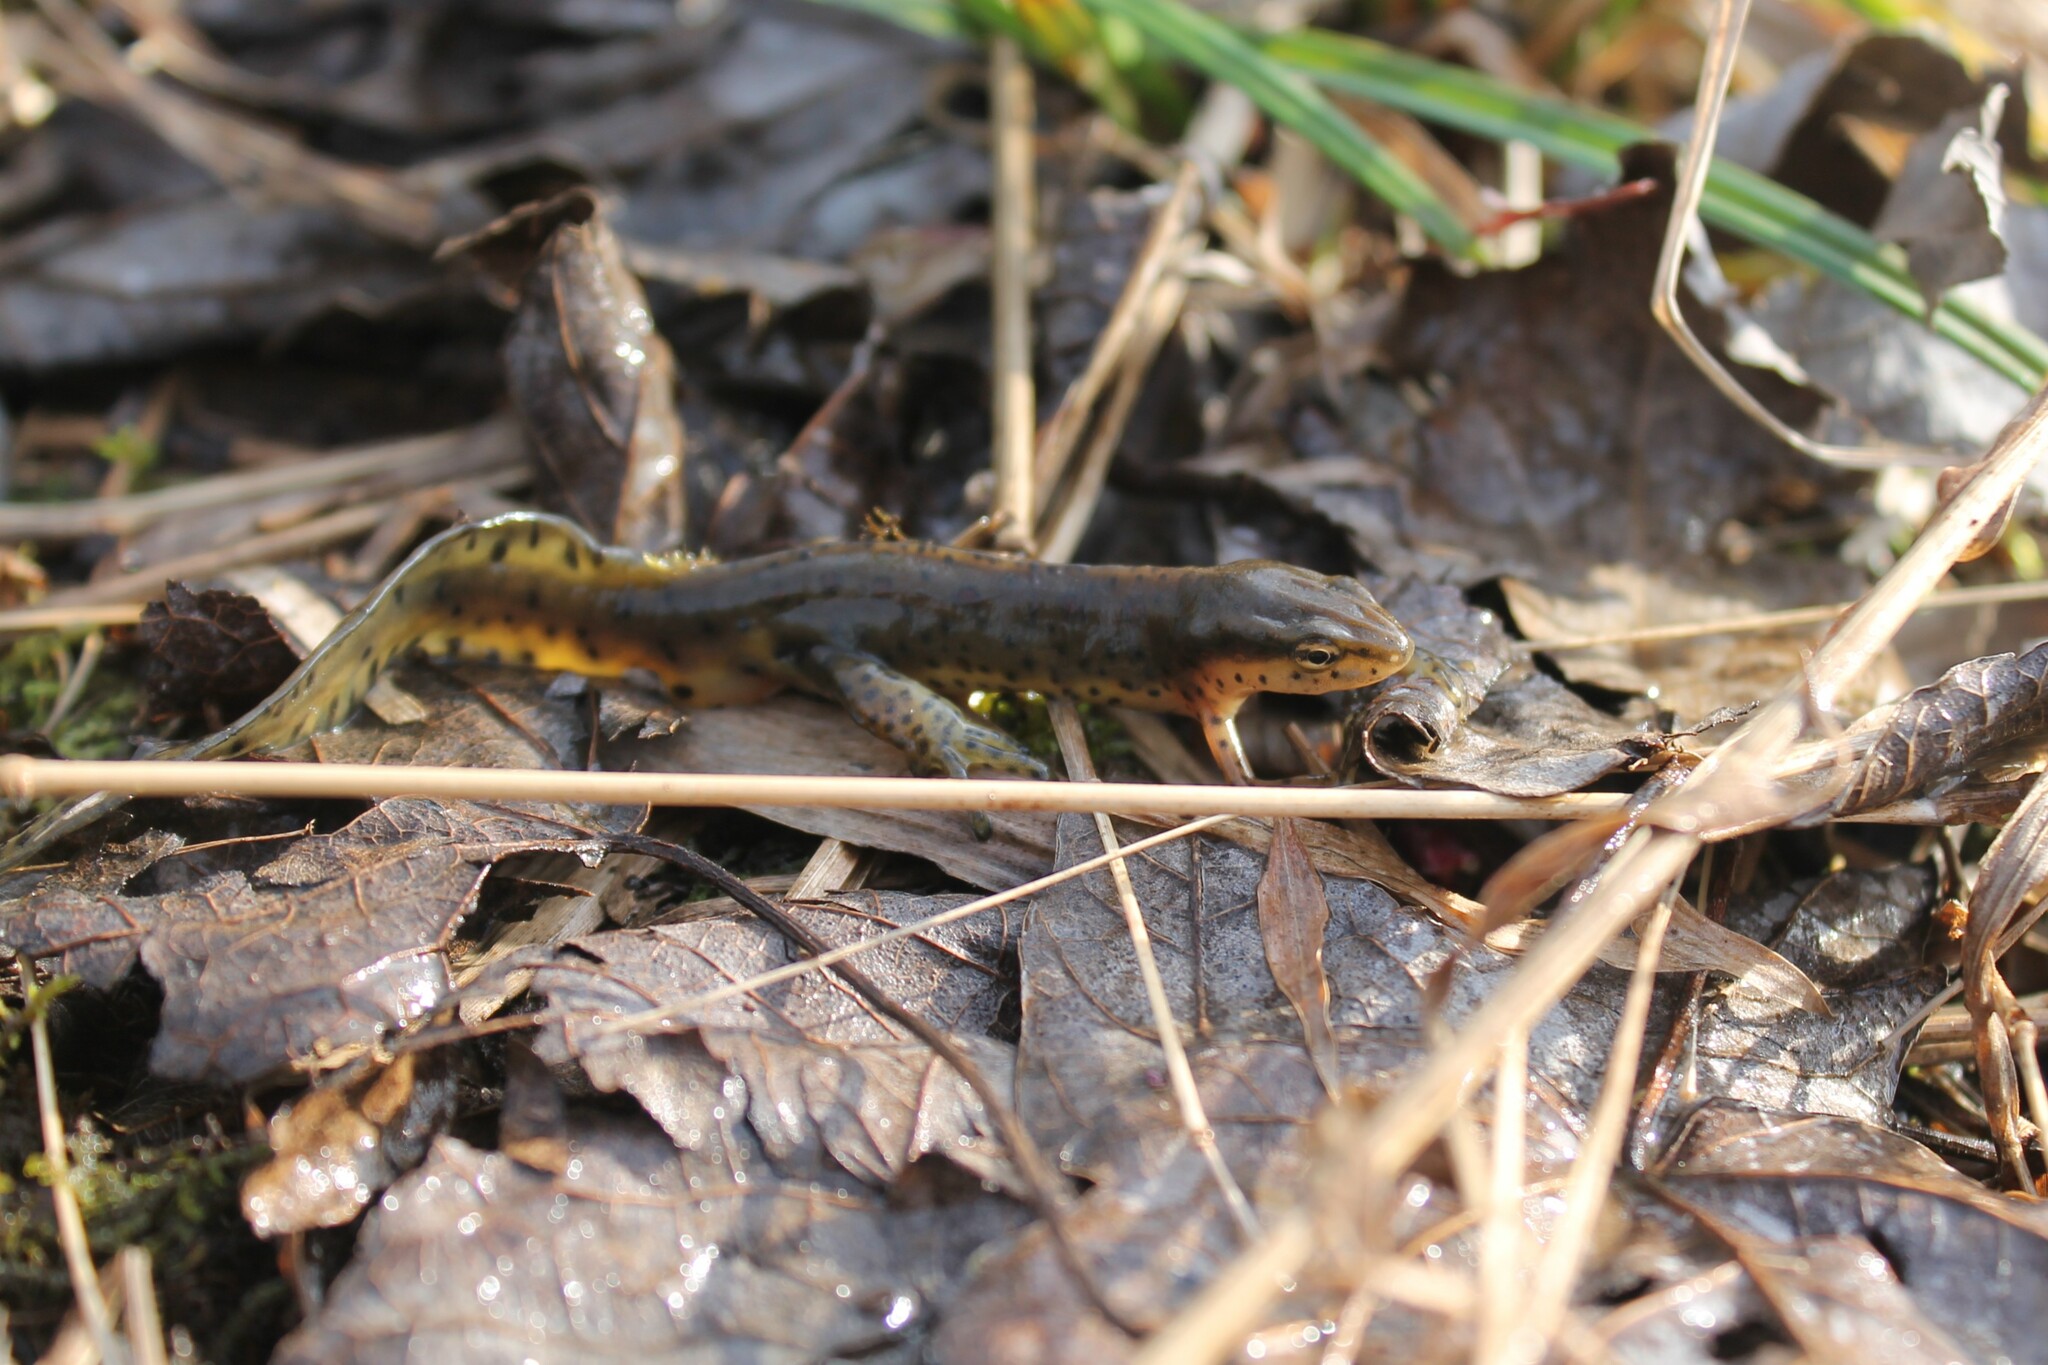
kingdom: Animalia
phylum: Chordata
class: Amphibia
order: Caudata
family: Salamandridae
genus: Notophthalmus
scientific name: Notophthalmus viridescens
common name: Eastern newt
